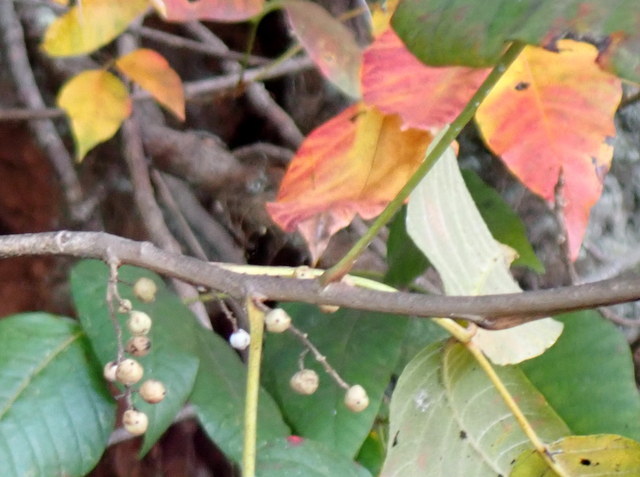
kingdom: Plantae
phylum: Tracheophyta
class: Magnoliopsida
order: Sapindales
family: Anacardiaceae
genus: Toxicodendron
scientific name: Toxicodendron radicans
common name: Poison ivy
